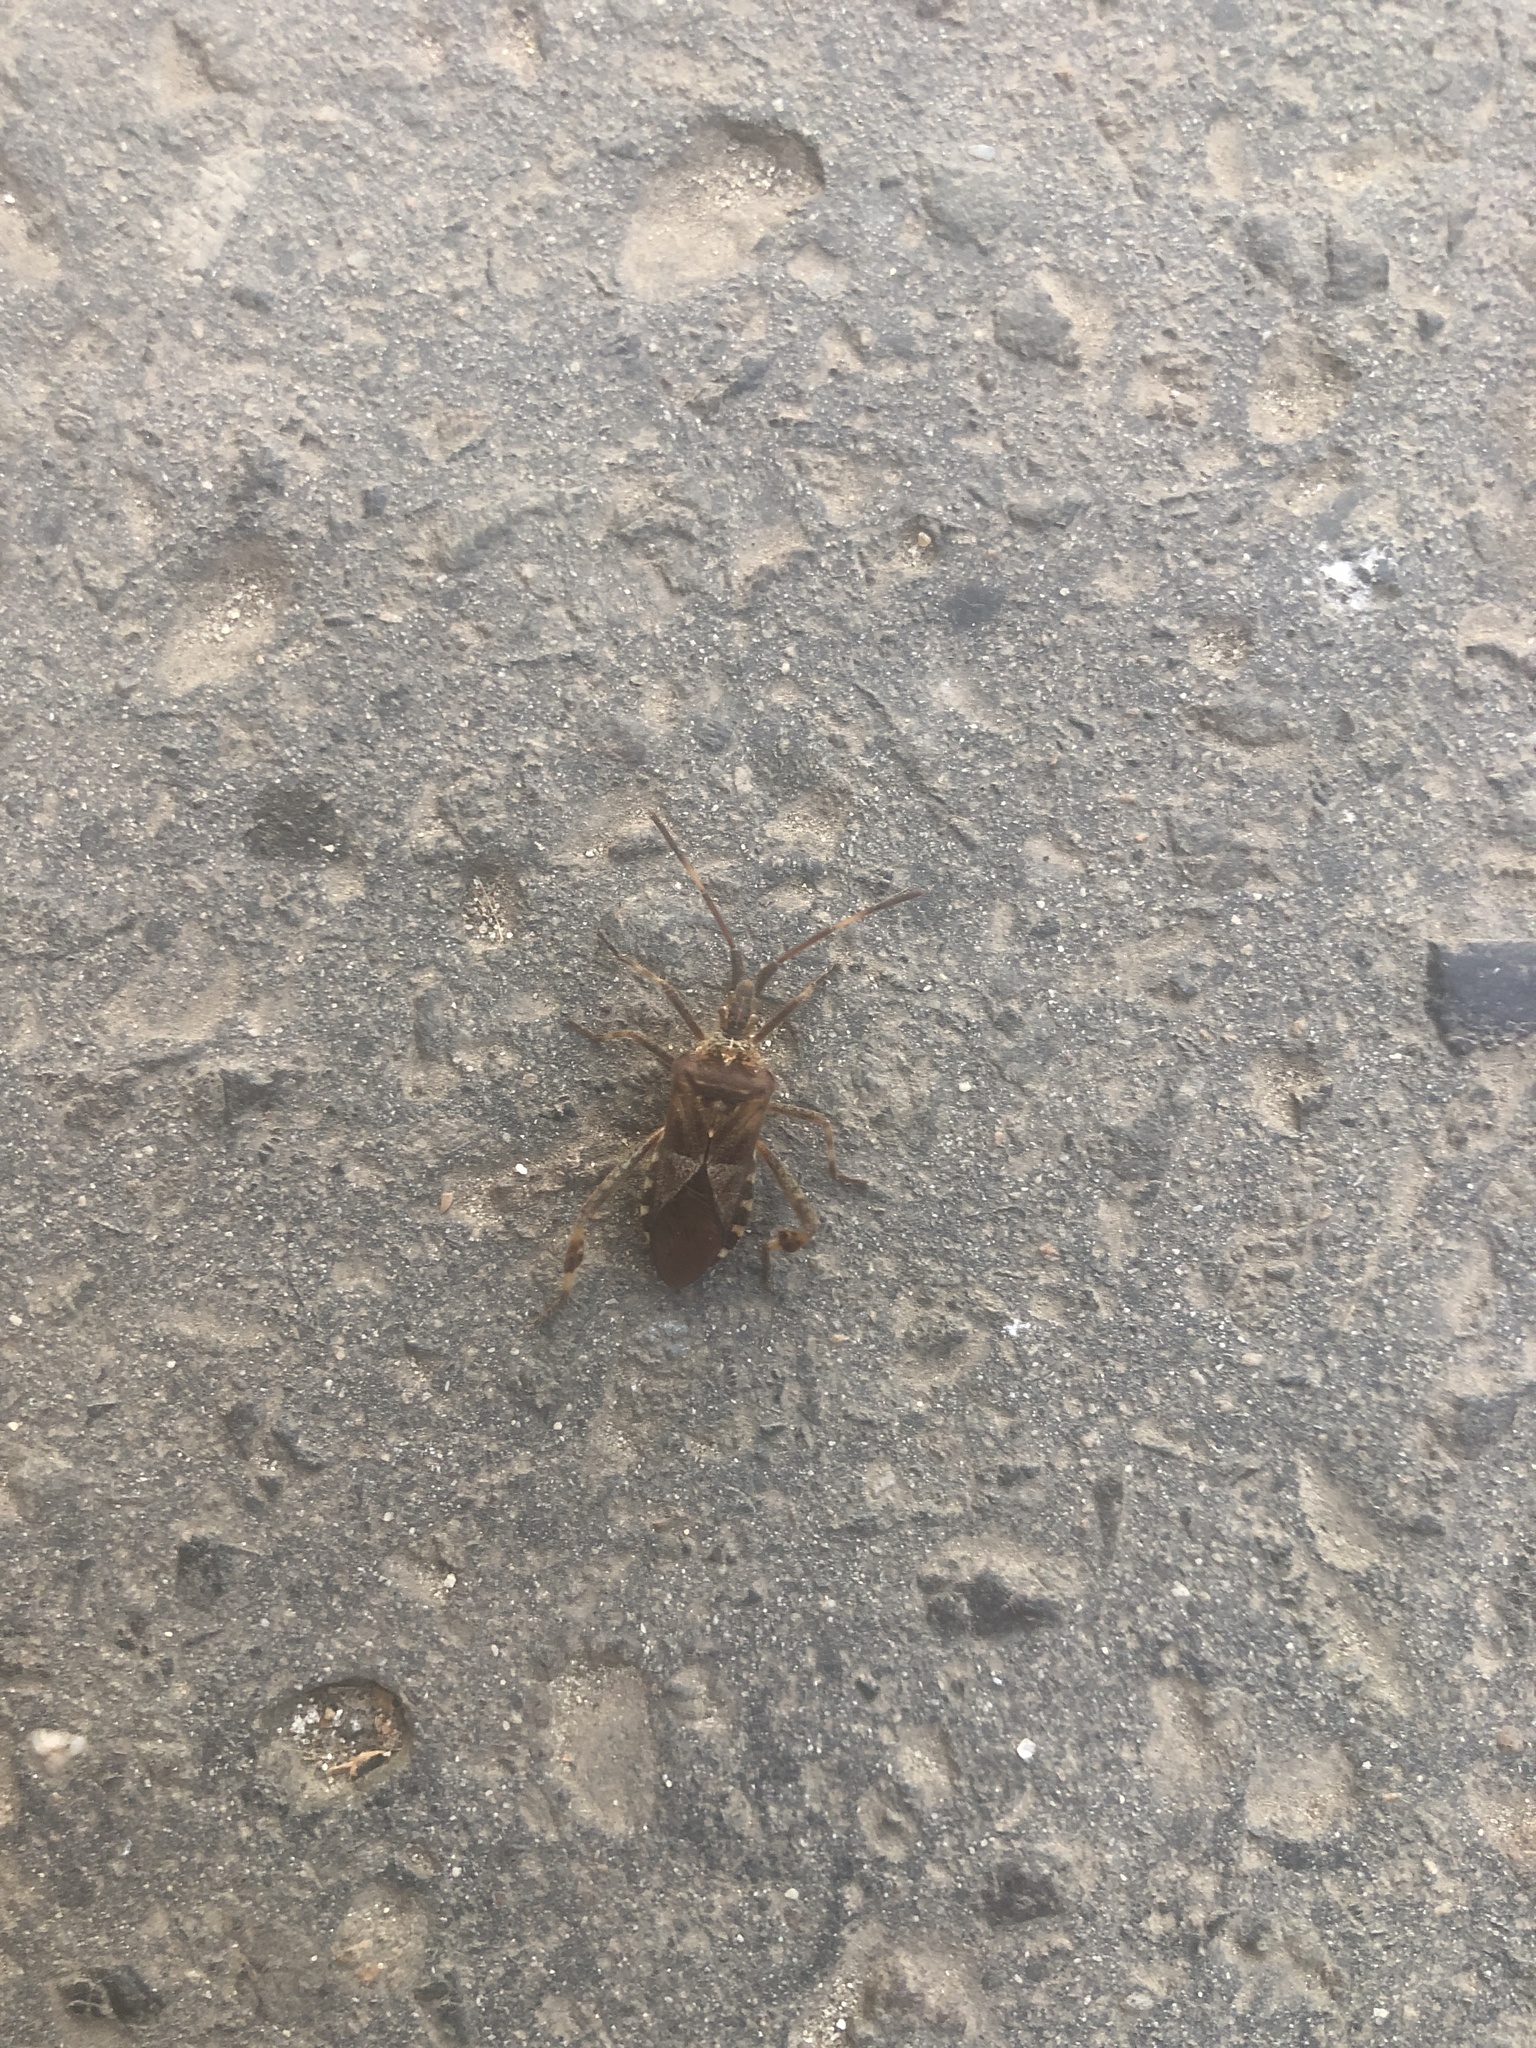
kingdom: Animalia
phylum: Arthropoda
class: Insecta
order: Hemiptera
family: Coreidae
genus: Leptoglossus
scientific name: Leptoglossus occidentalis
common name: Western conifer-seed bug
